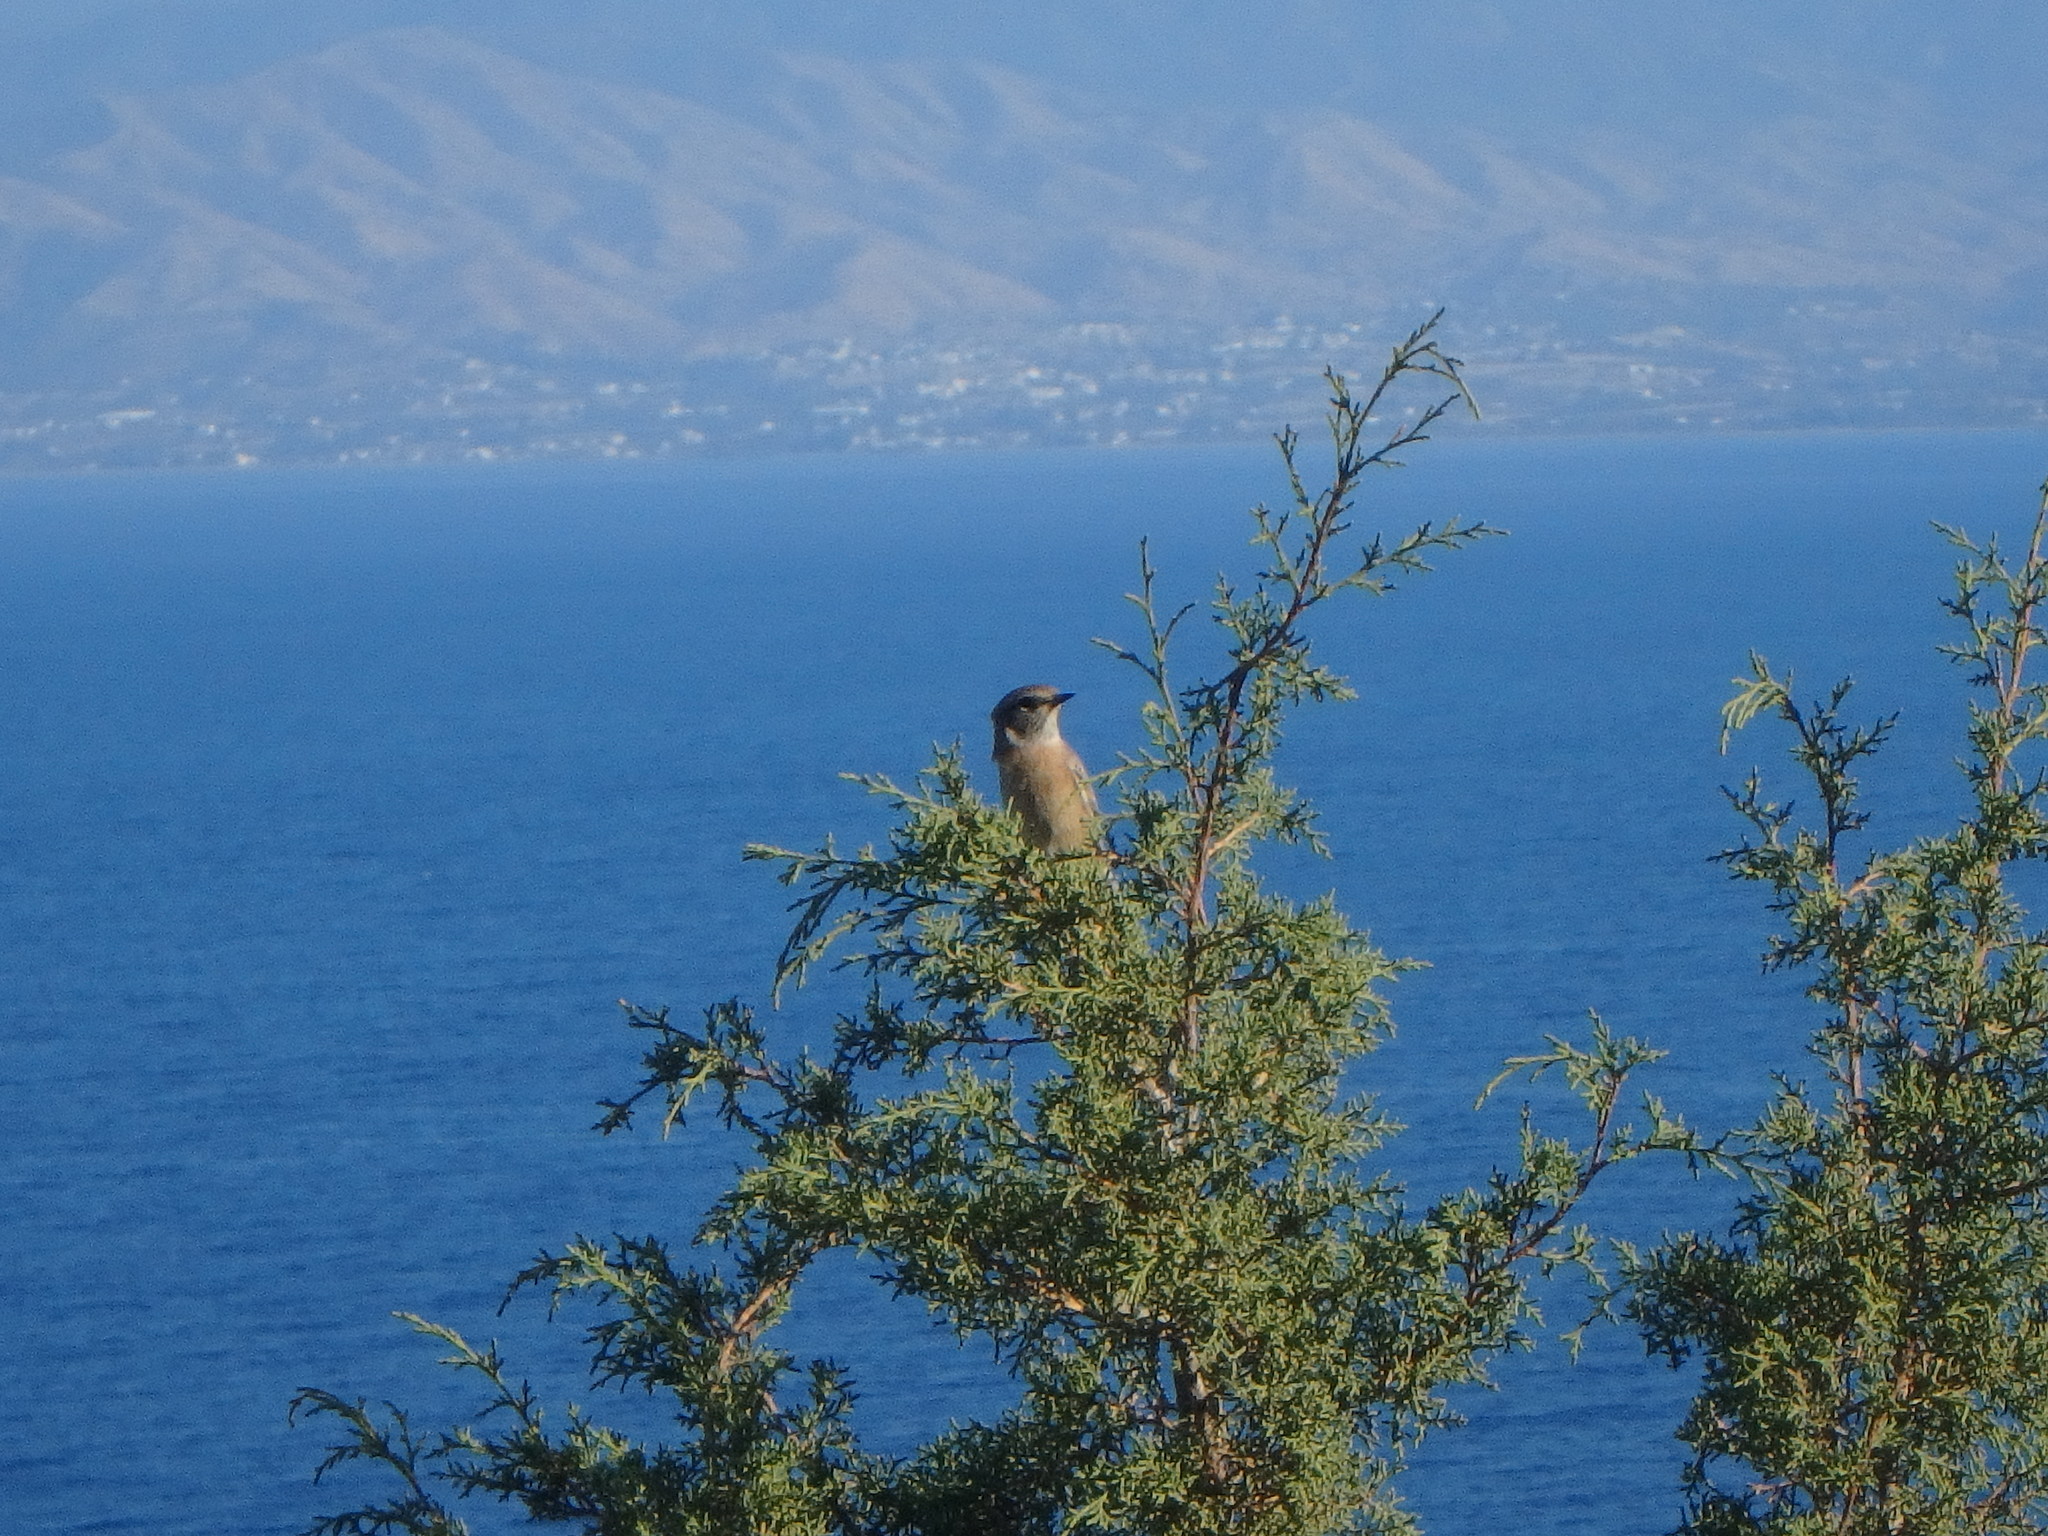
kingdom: Animalia
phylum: Chordata
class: Aves
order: Passeriformes
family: Muscicapidae
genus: Saxicola
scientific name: Saxicola rubicola
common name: European stonechat
